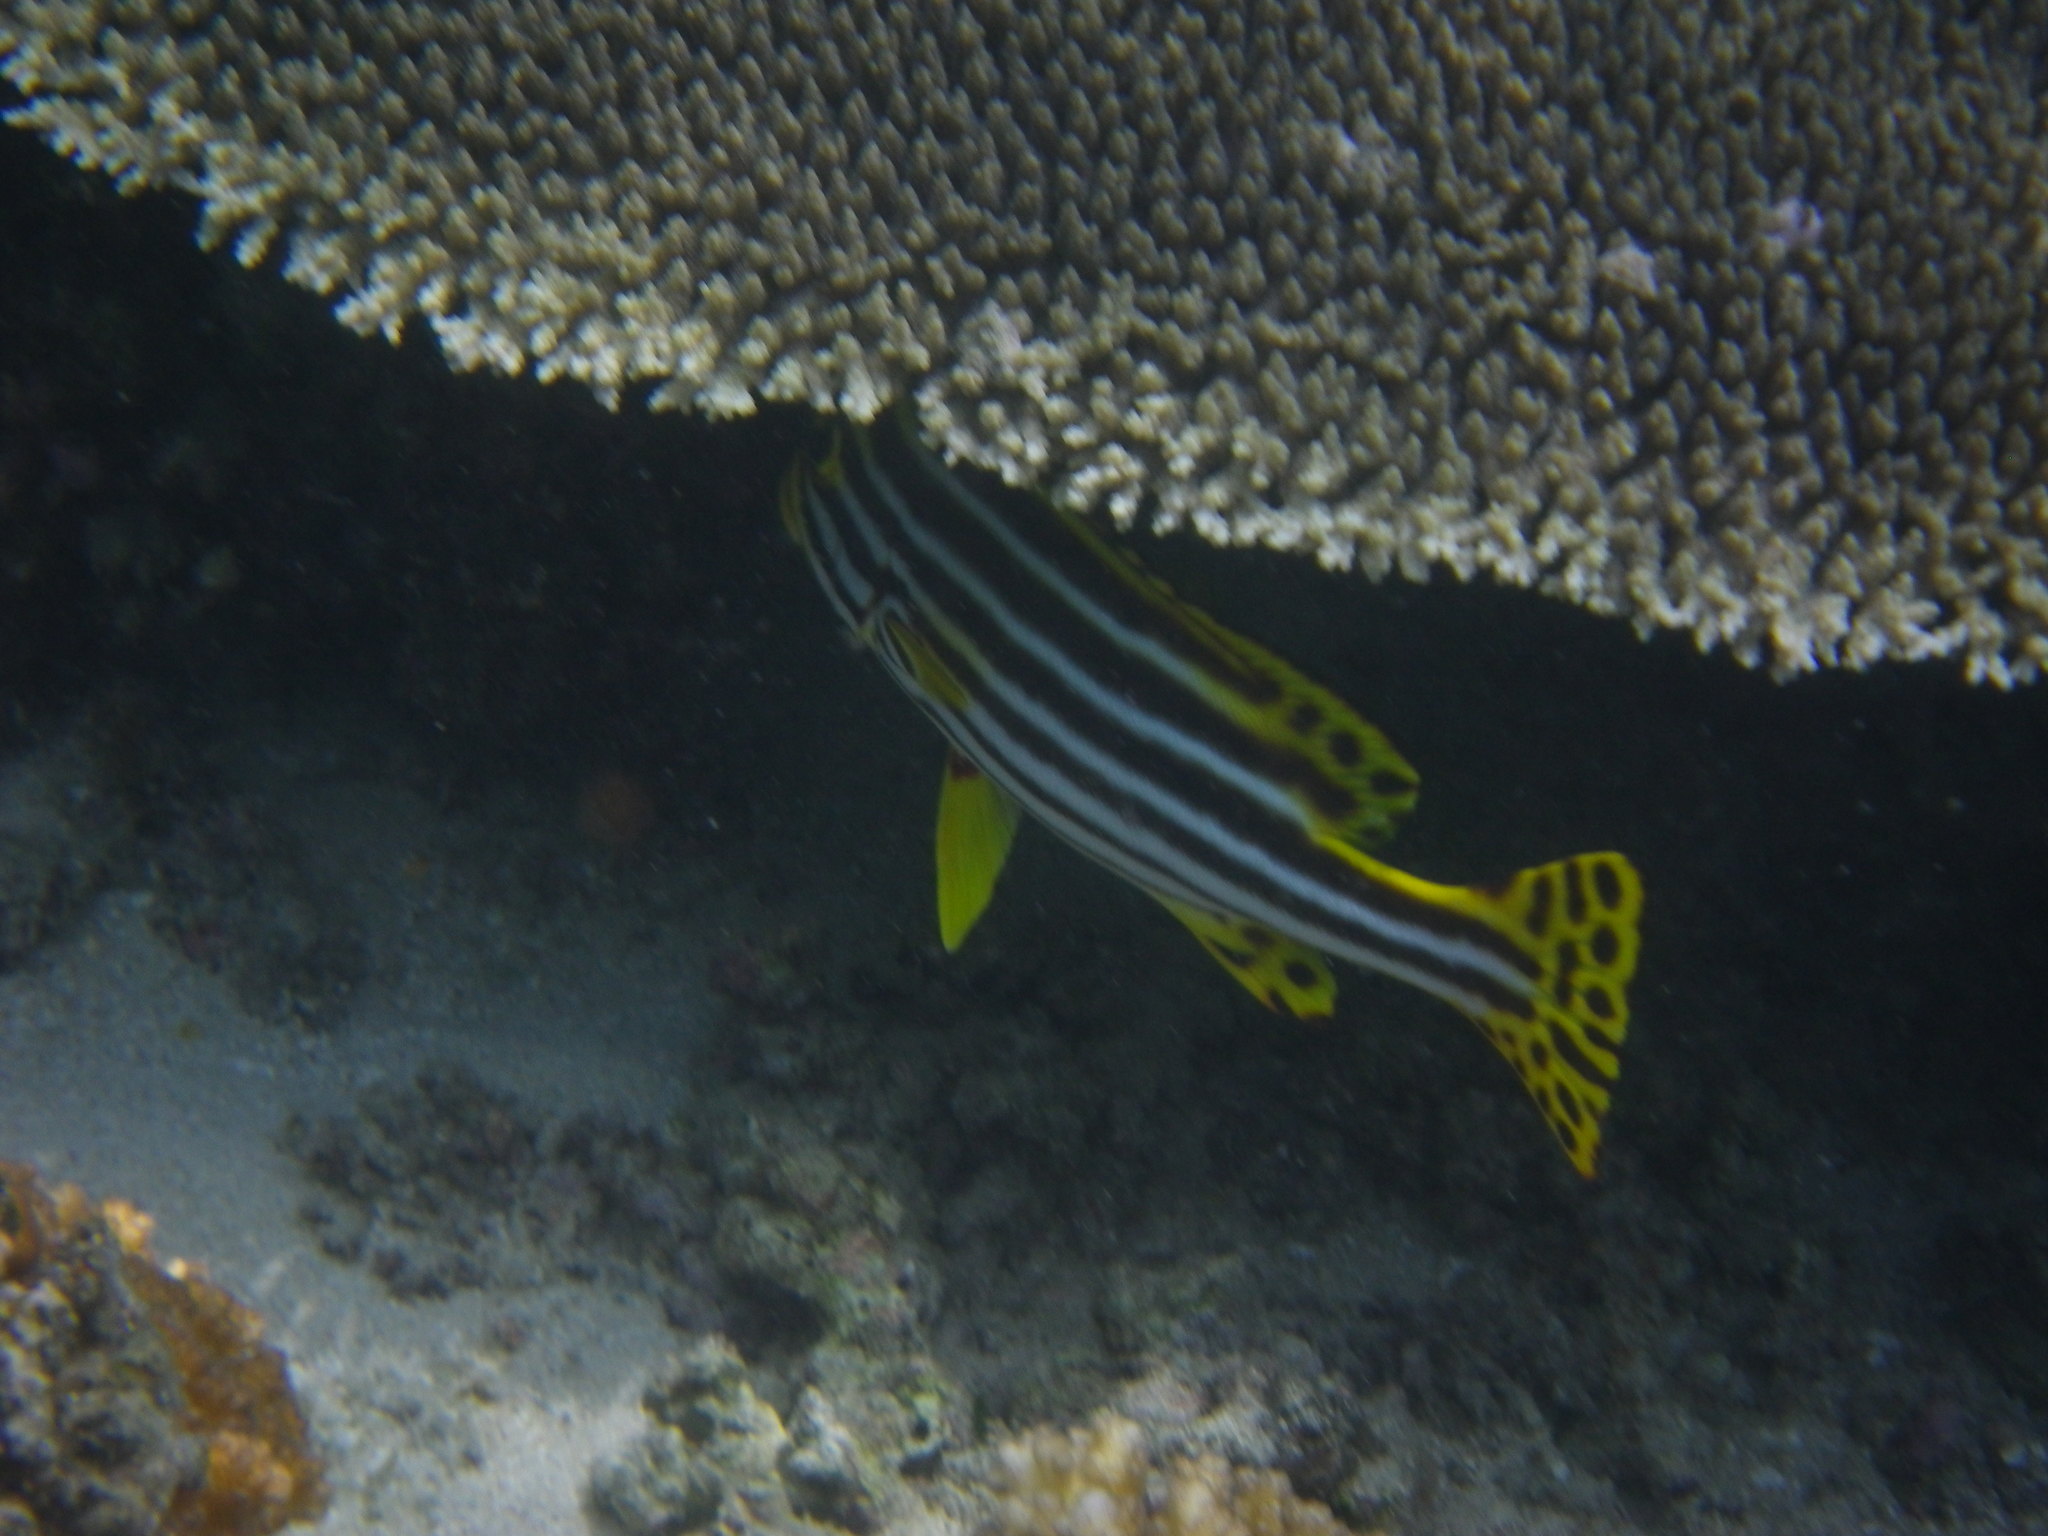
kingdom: Animalia
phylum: Chordata
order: Perciformes
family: Haemulidae
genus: Plectorhinchus
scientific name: Plectorhinchus vittatus
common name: Oriental sweetlips
